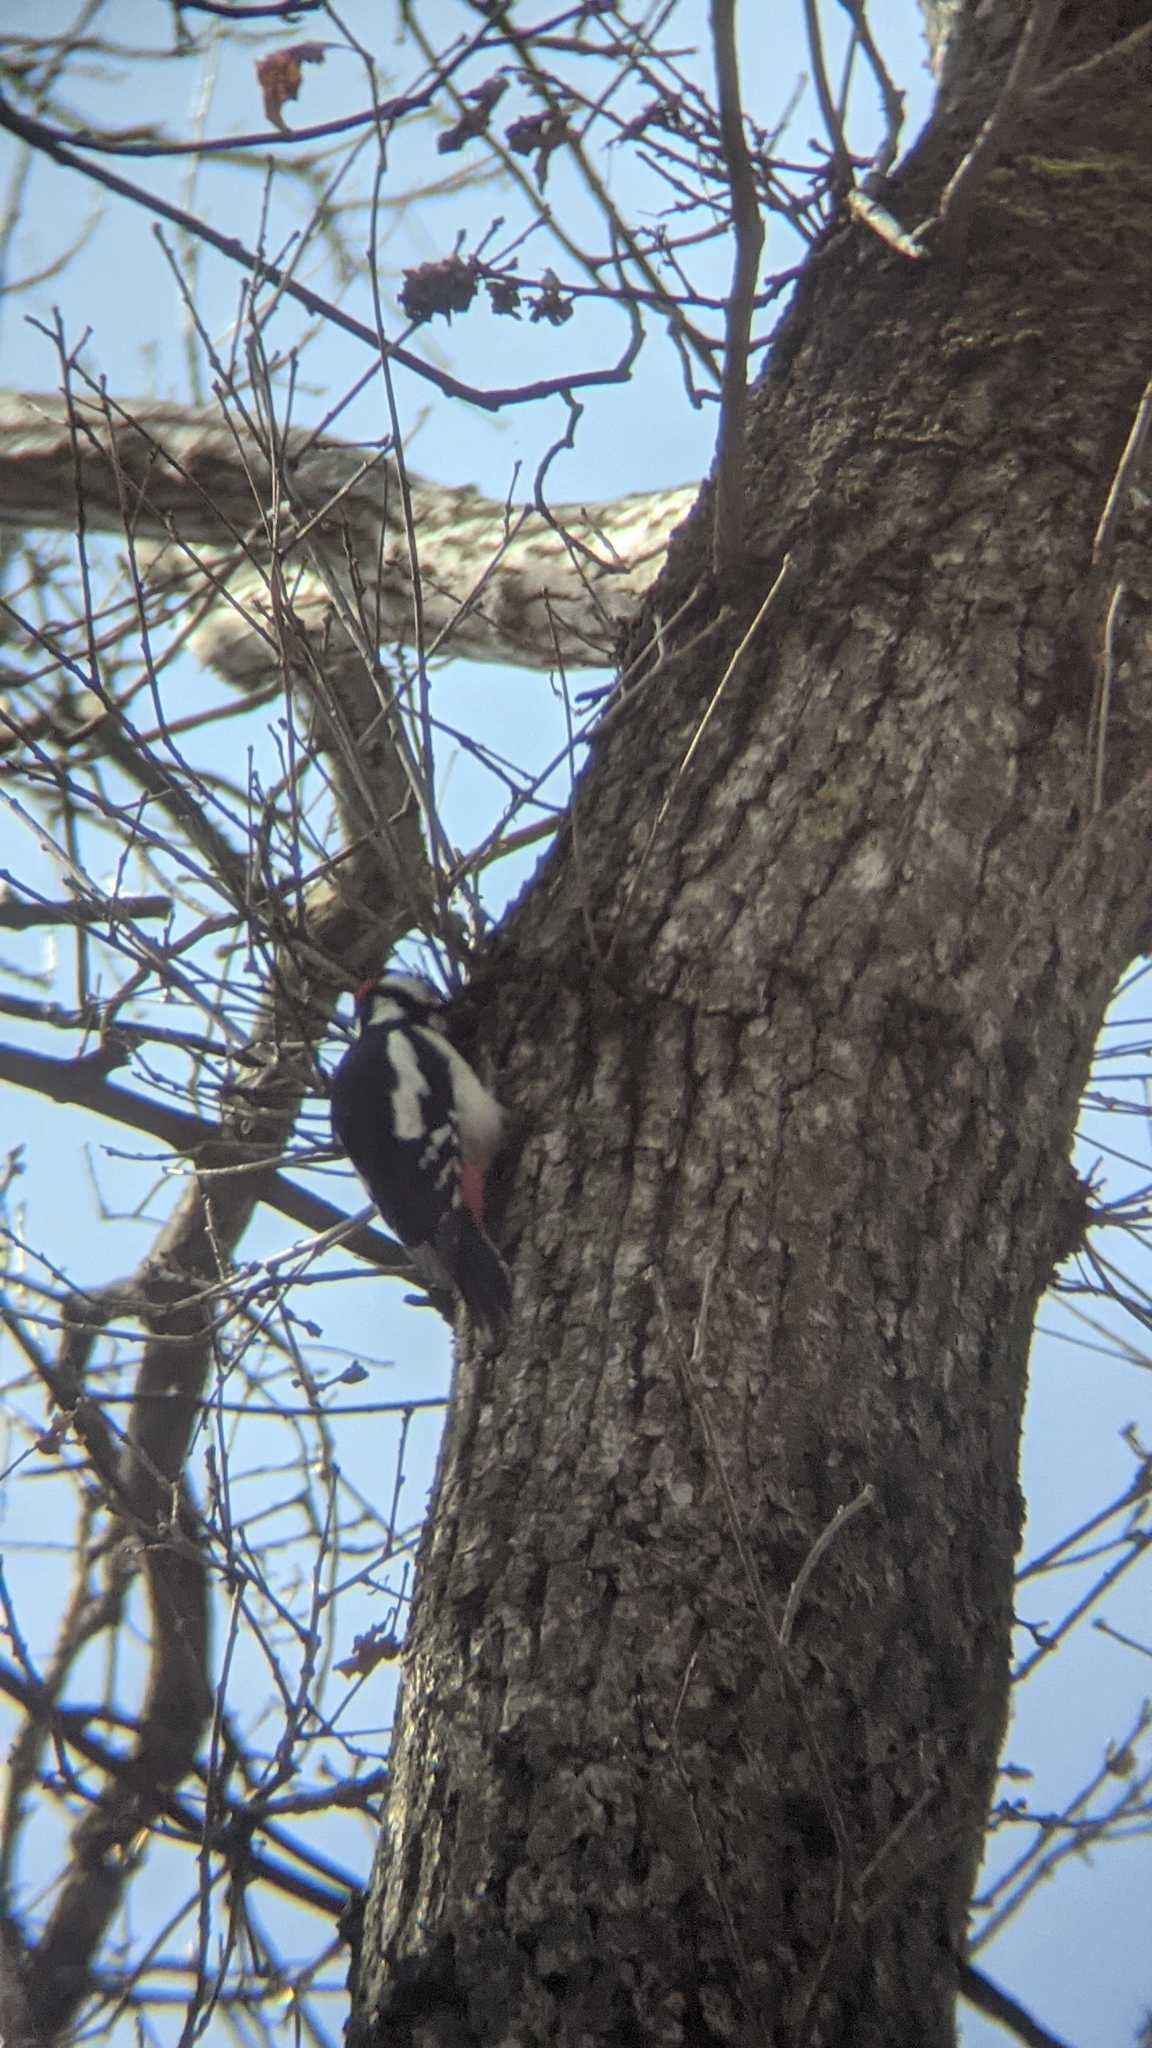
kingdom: Animalia
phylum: Chordata
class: Aves
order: Piciformes
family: Picidae
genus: Dendrocopos
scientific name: Dendrocopos major
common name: Great spotted woodpecker
